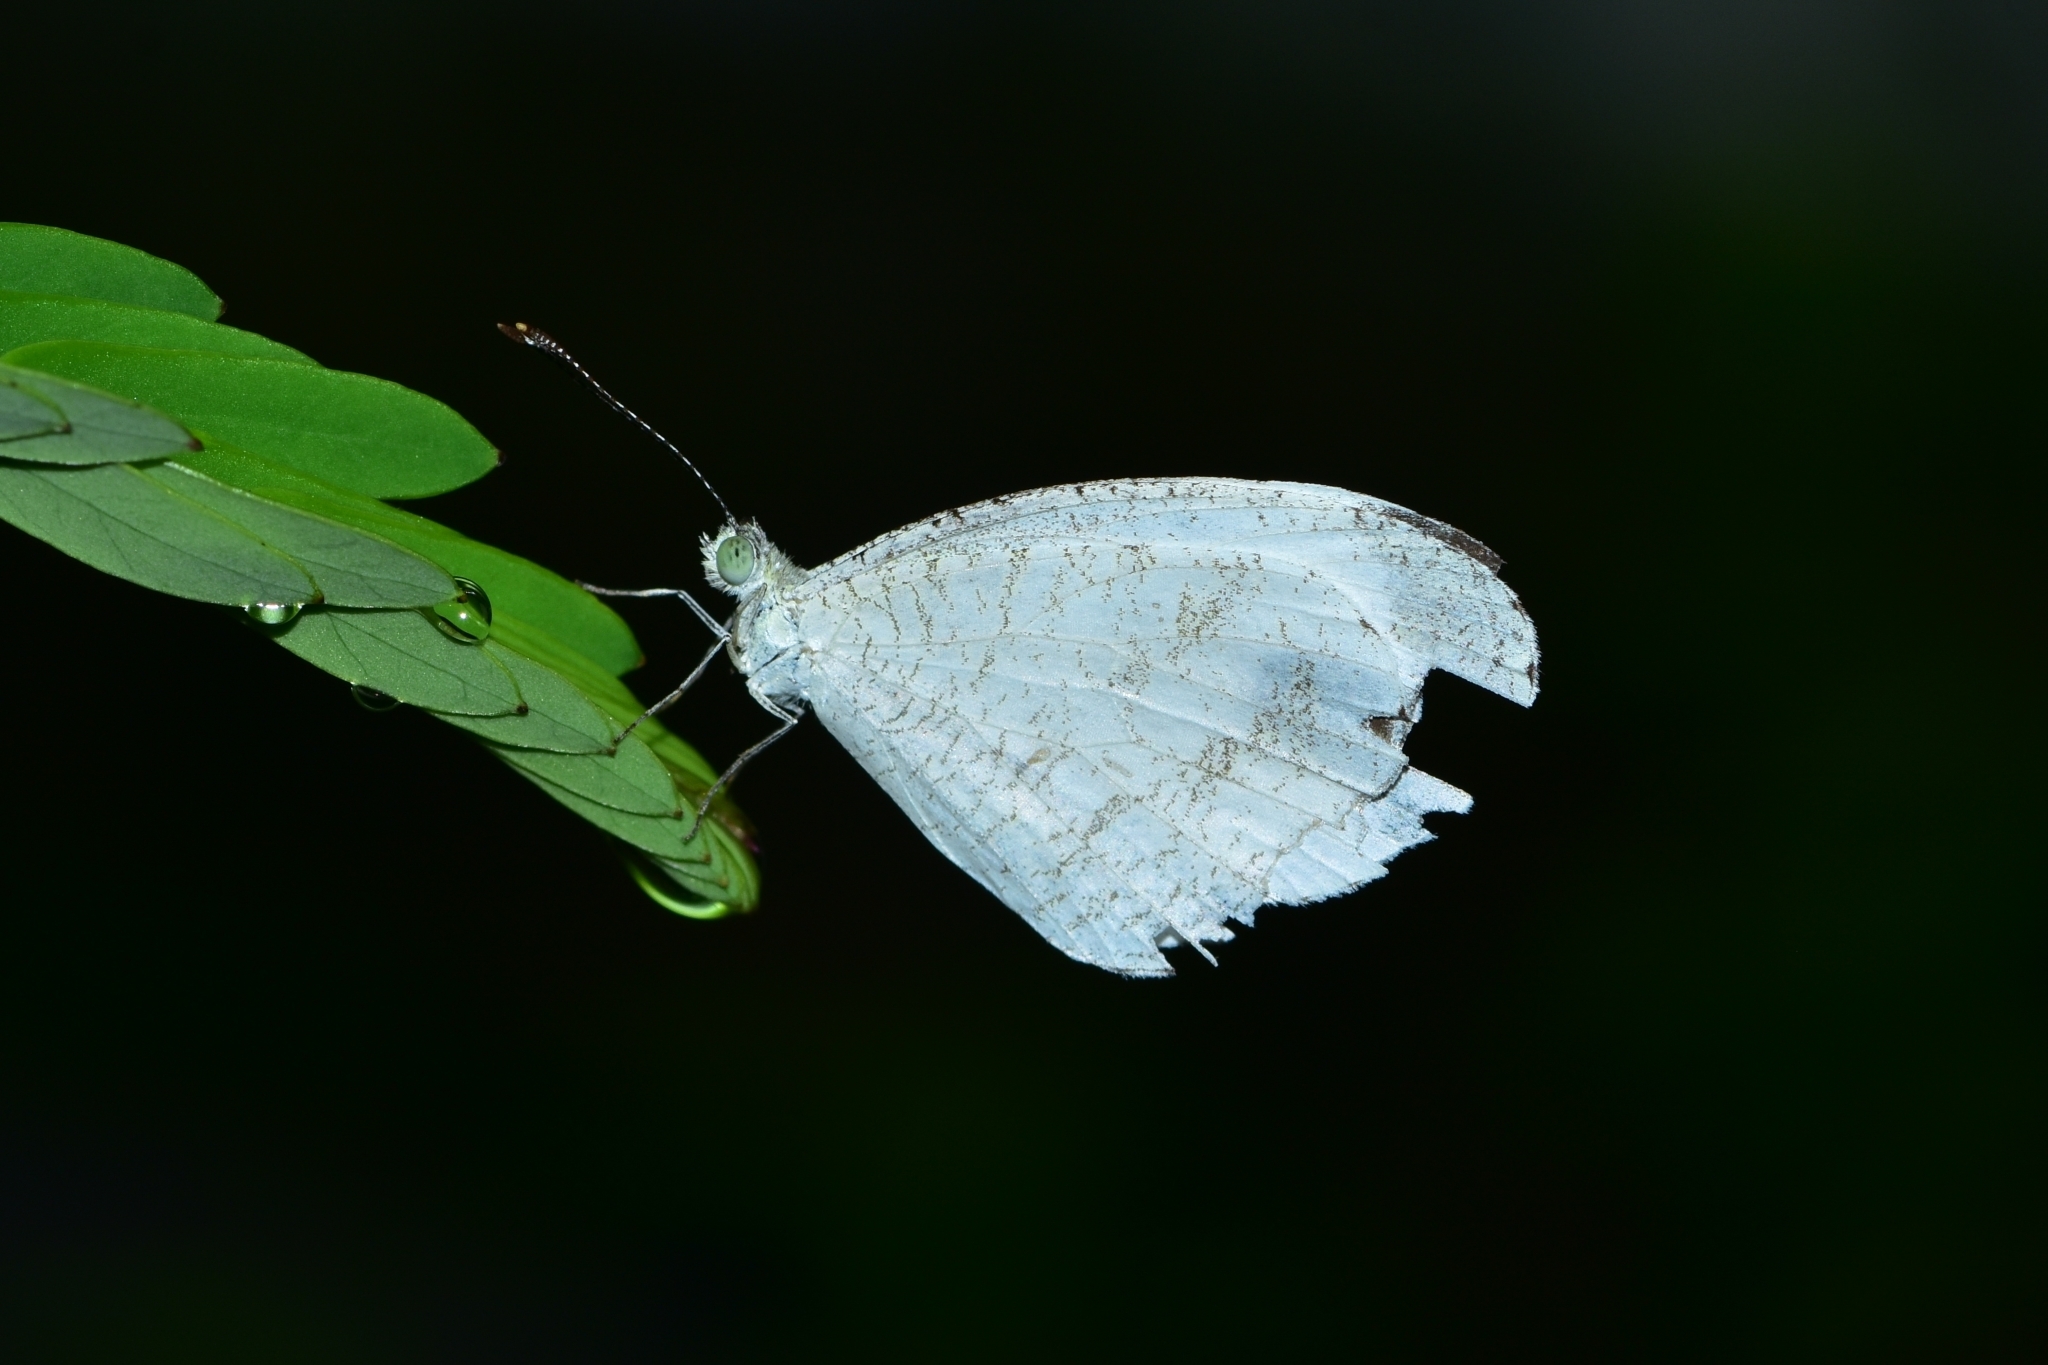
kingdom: Animalia
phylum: Arthropoda
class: Insecta
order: Lepidoptera
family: Pieridae
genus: Leptosia
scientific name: Leptosia nina
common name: Psyche
